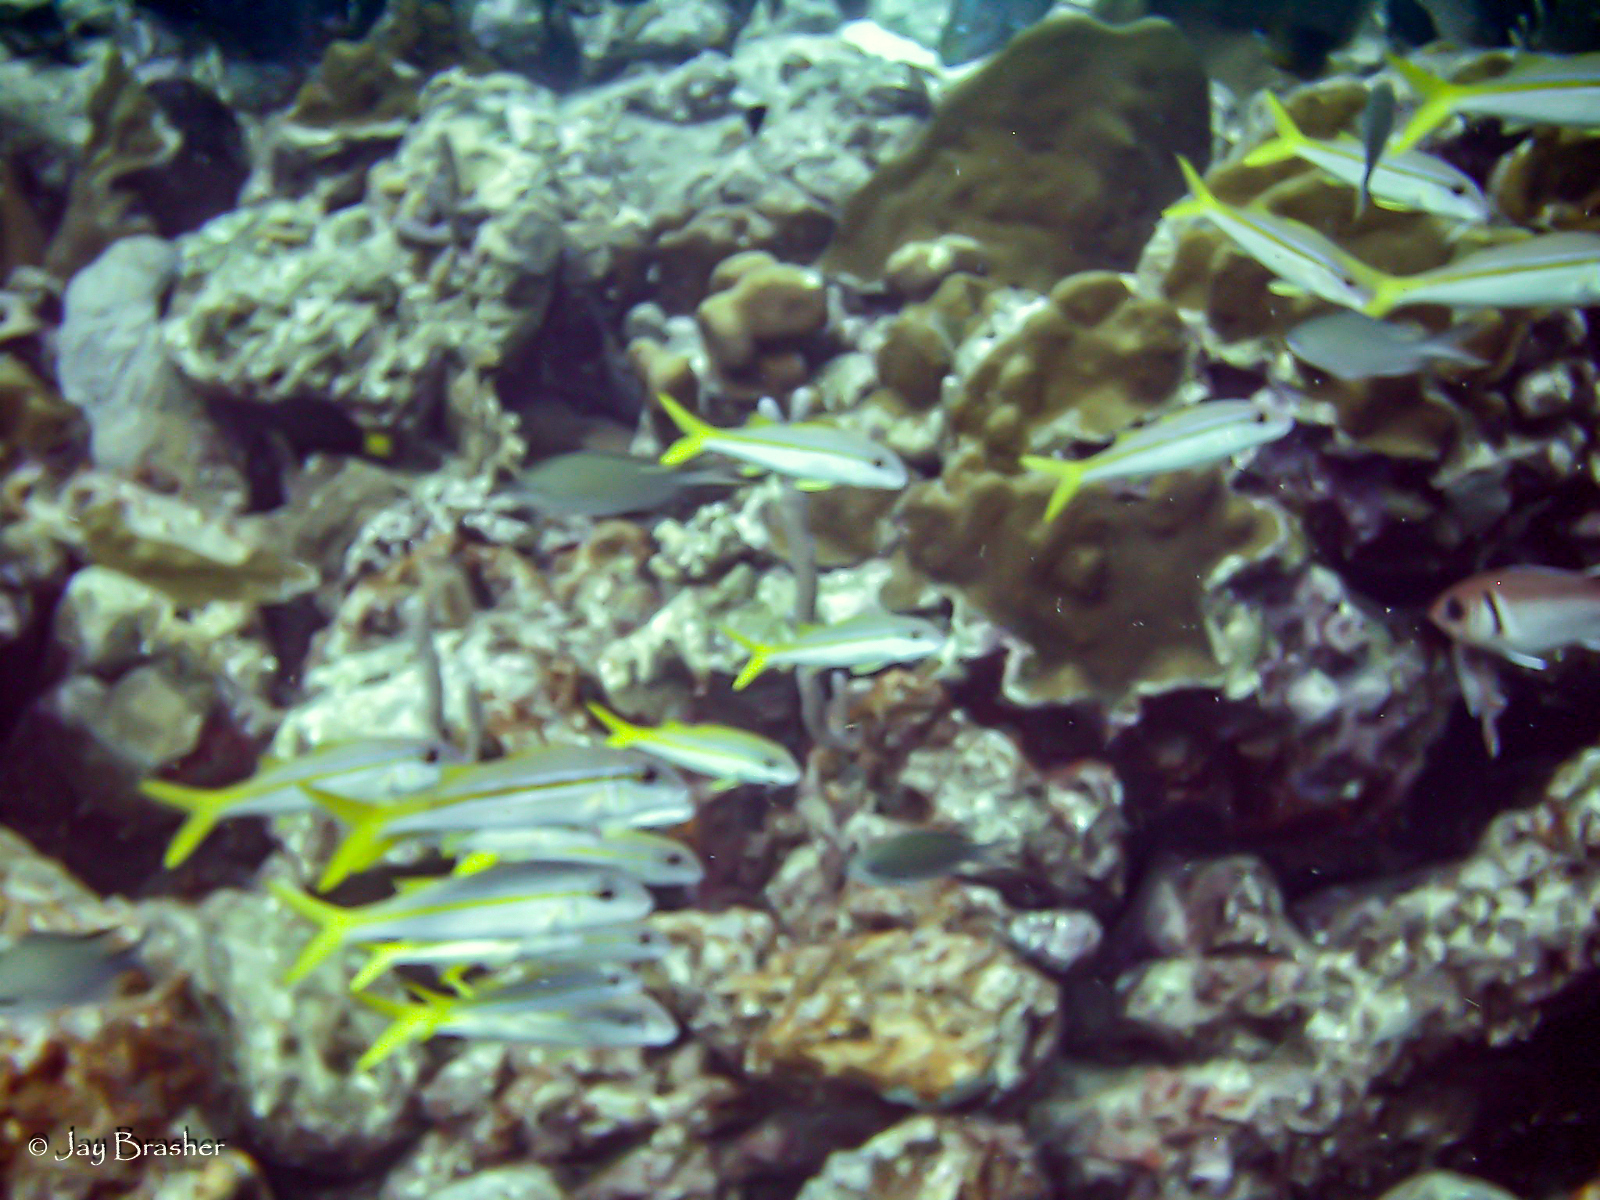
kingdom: Animalia
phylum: Chordata
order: Perciformes
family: Mullidae
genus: Mulloidichthys
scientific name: Mulloidichthys martinicus
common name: Yellow goatfish
